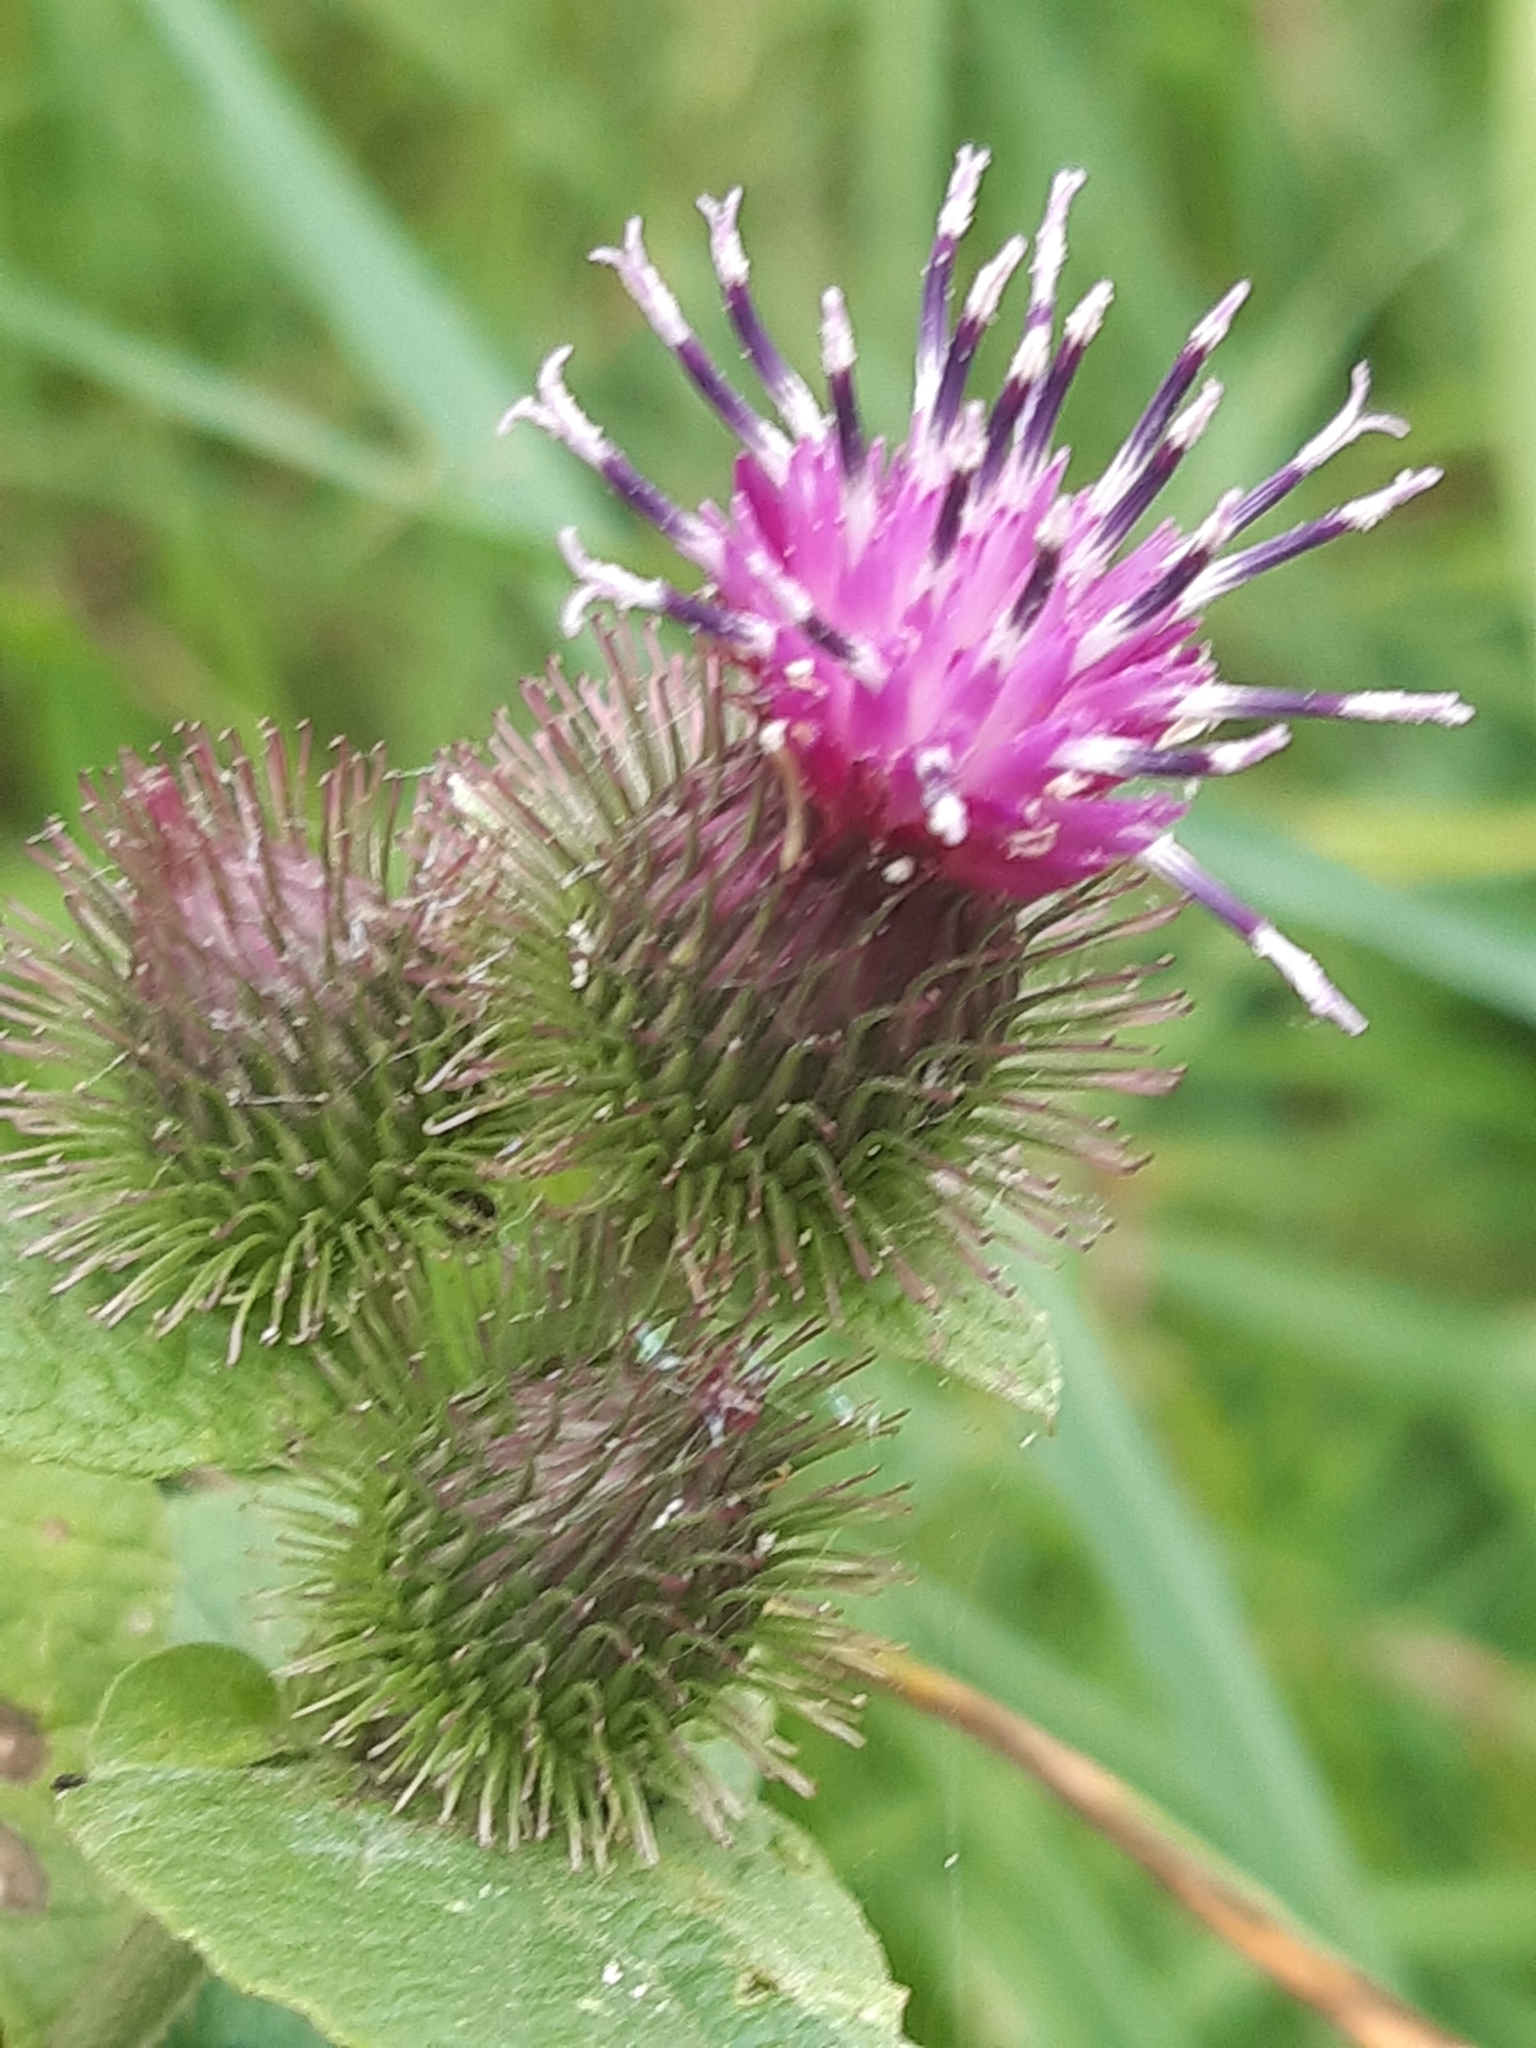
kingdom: Plantae
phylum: Tracheophyta
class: Magnoliopsida
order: Asterales
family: Asteraceae
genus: Arctium
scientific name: Arctium minus
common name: Lesser burdock
